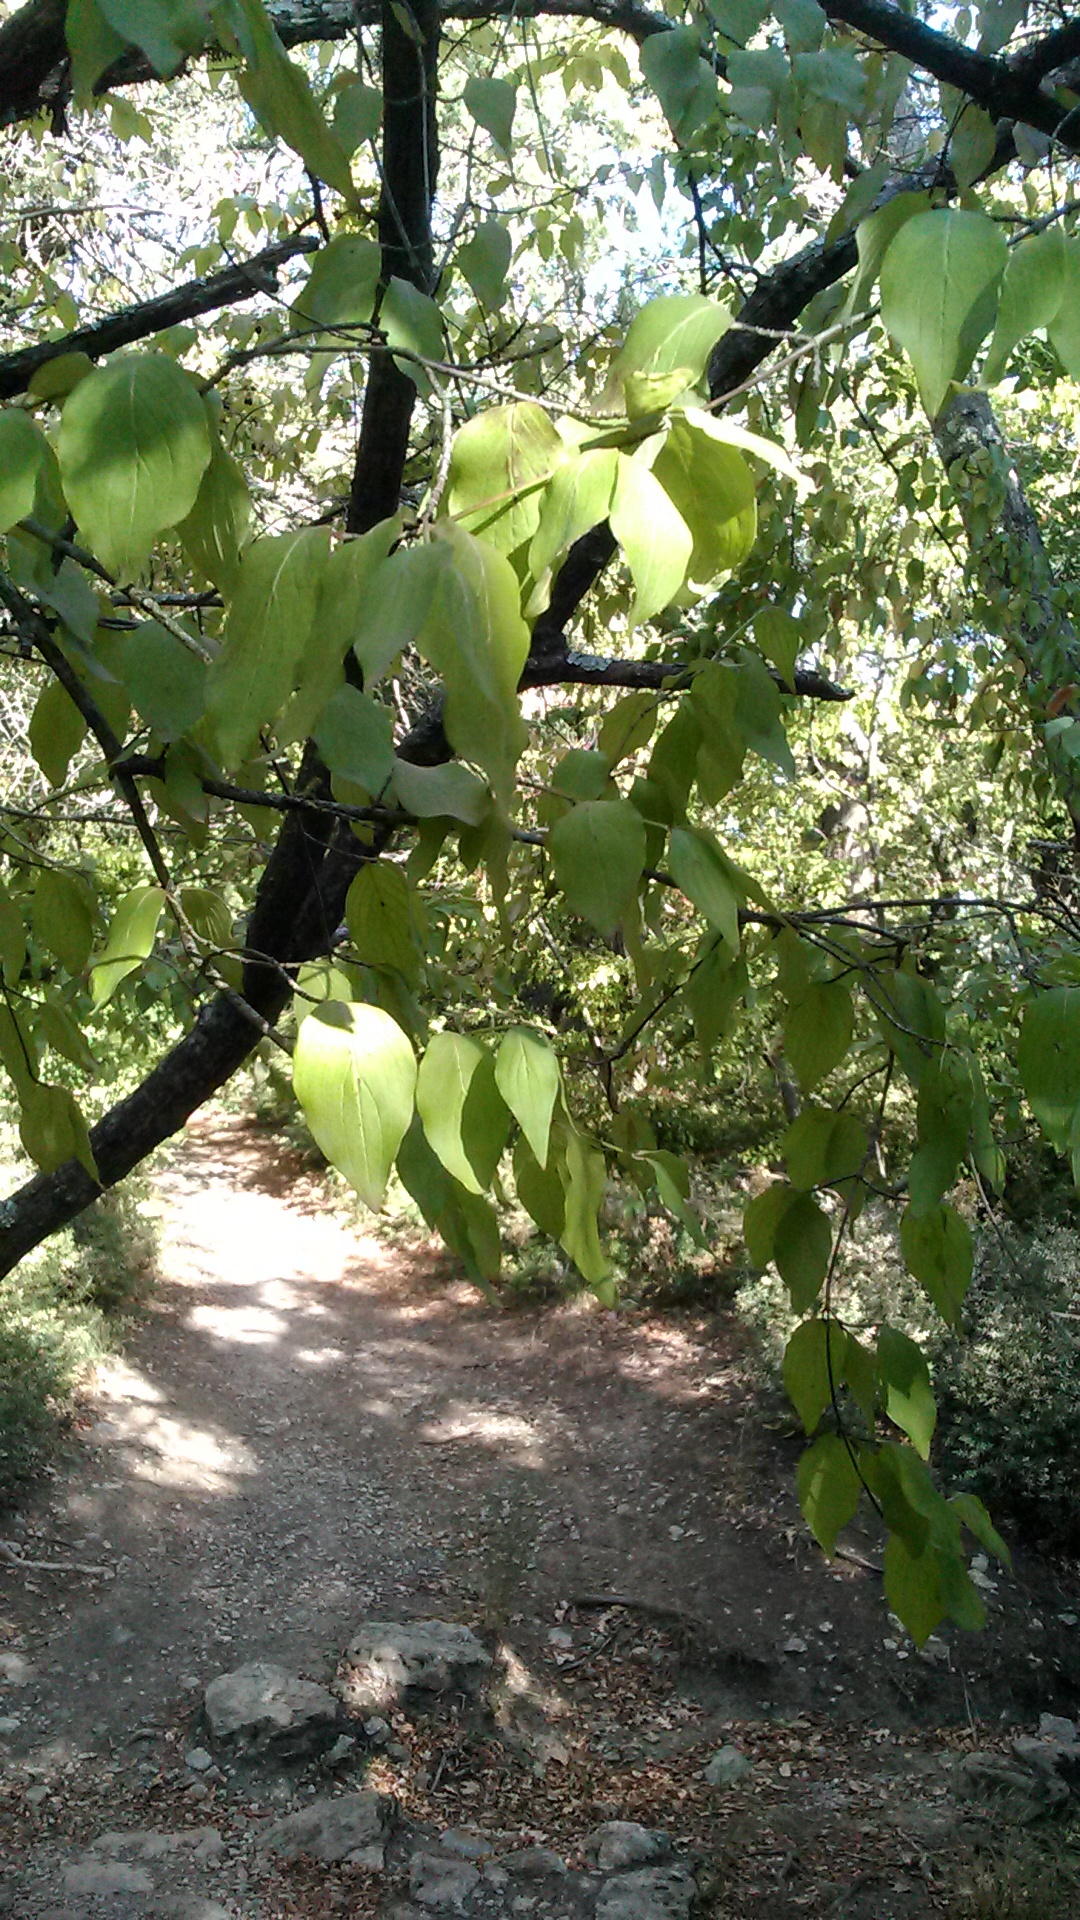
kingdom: Plantae
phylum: Tracheophyta
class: Magnoliopsida
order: Cornales
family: Cornaceae
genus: Cornus
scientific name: Cornus mas
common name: Cornelian-cherry
